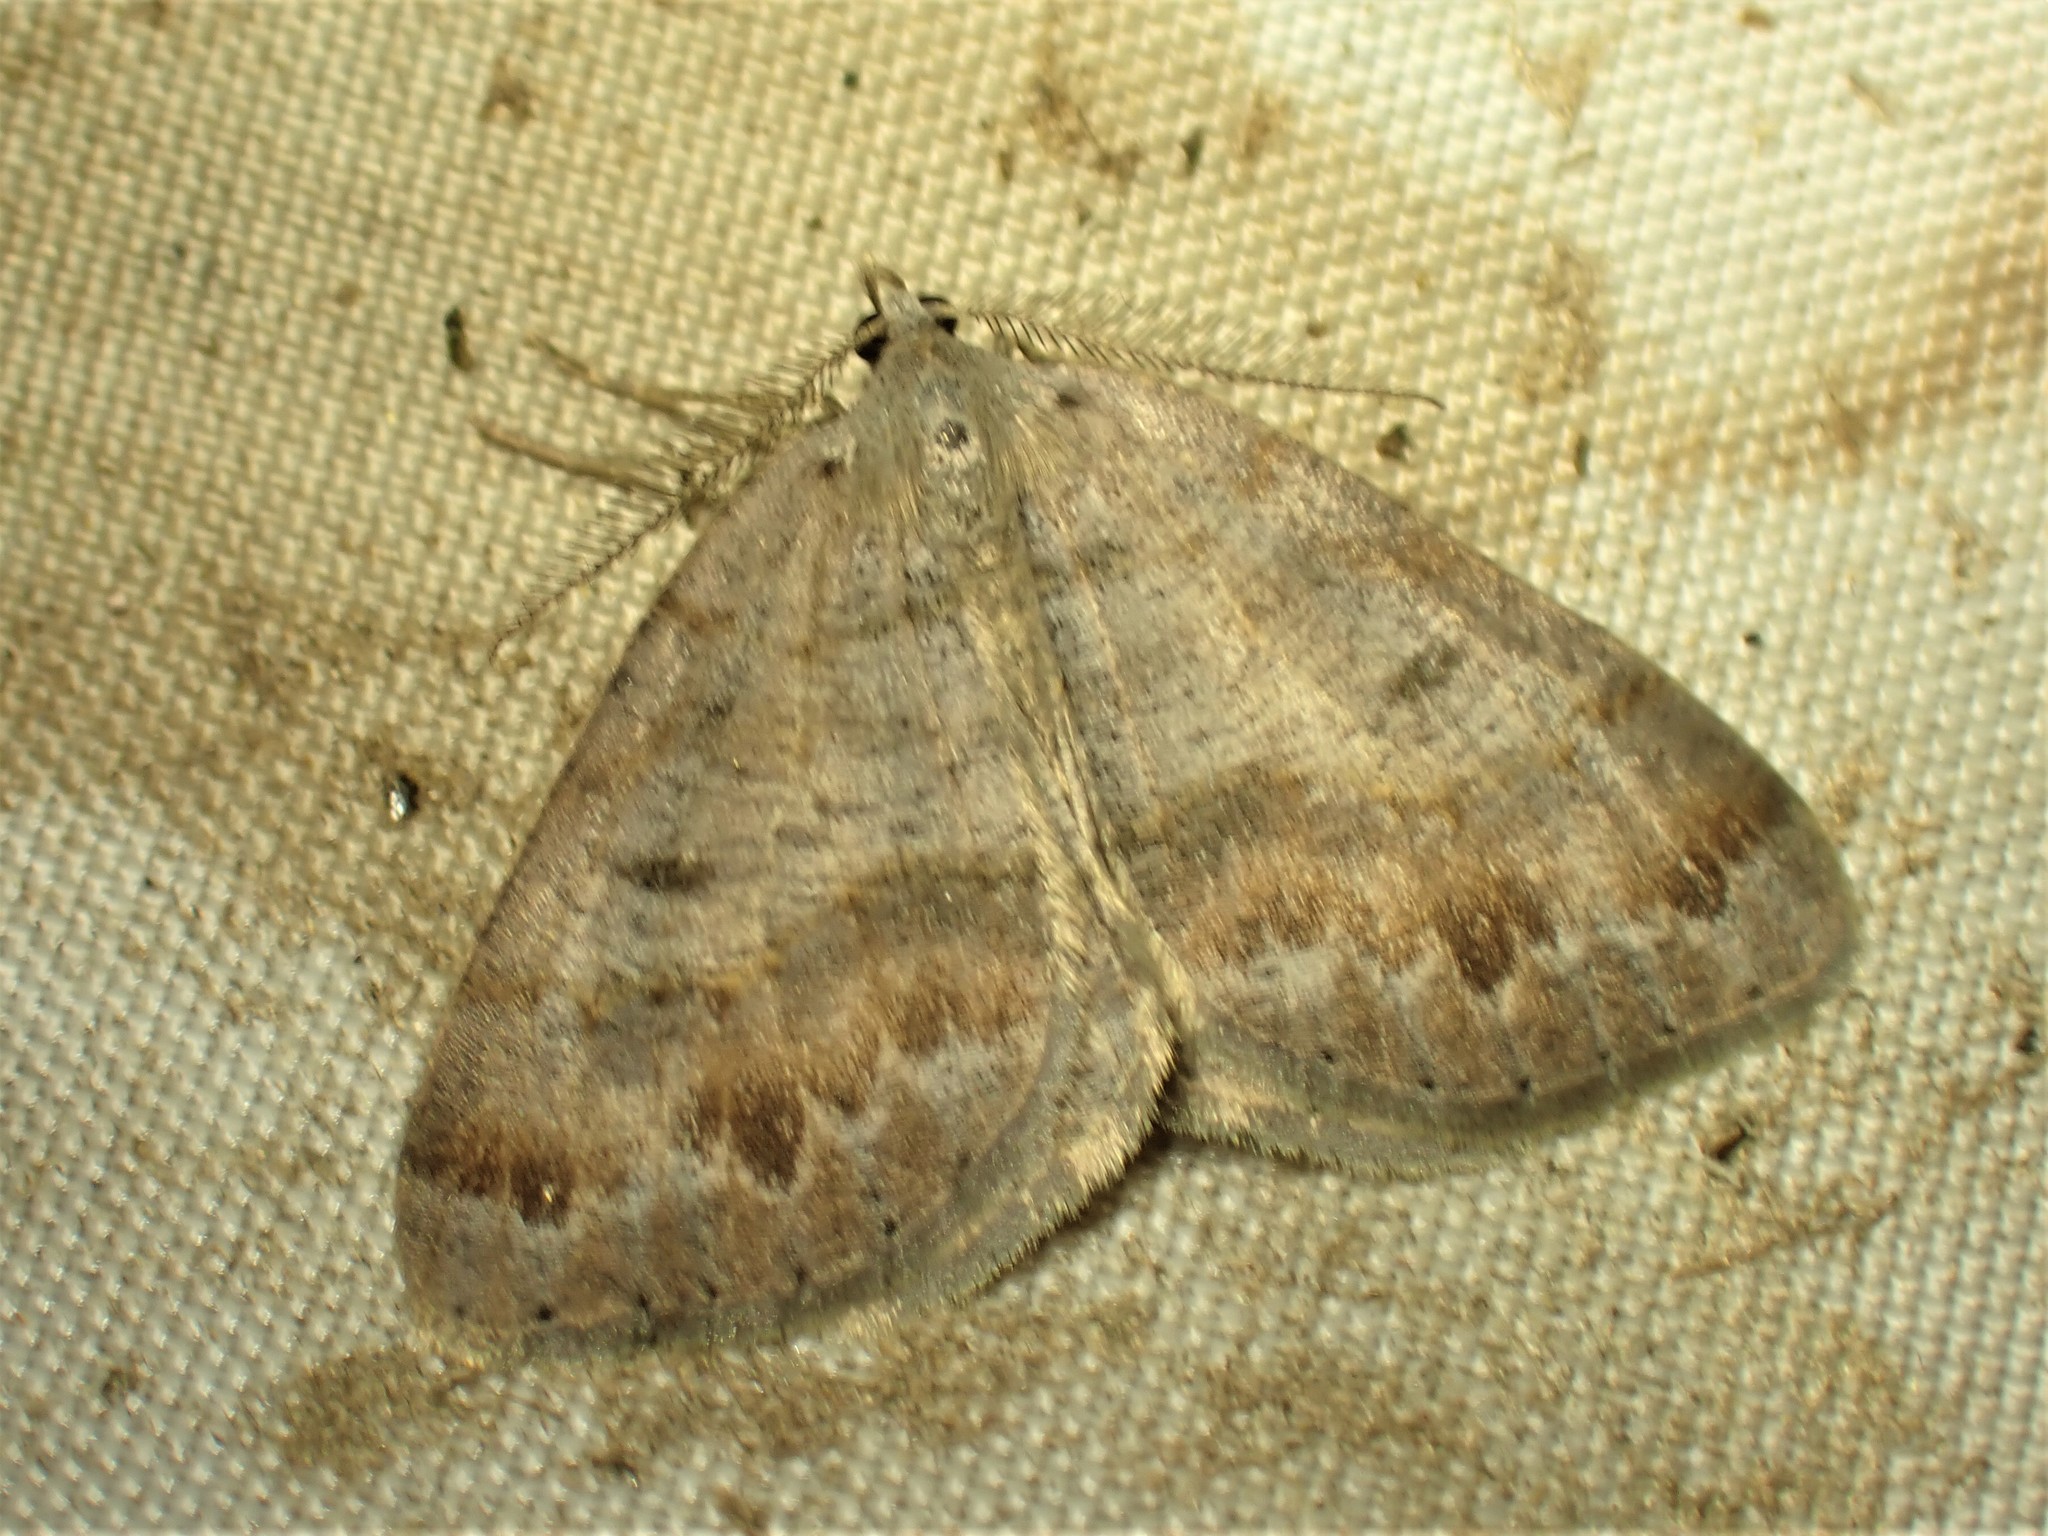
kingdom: Animalia
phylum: Arthropoda
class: Insecta
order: Lepidoptera
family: Geometridae
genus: Macaria
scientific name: Macaria loricaria
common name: False bruce spanworm
